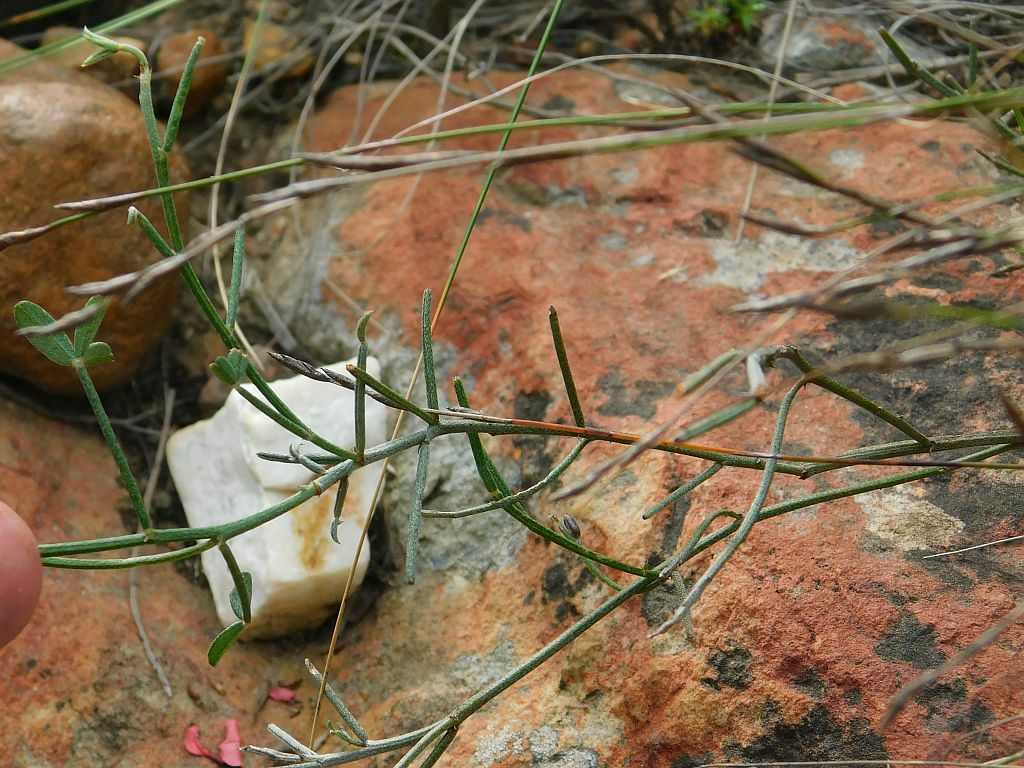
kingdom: Plantae
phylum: Tracheophyta
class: Magnoliopsida
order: Fabales
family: Fabaceae
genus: Indigofera
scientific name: Indigofera heterophylla
